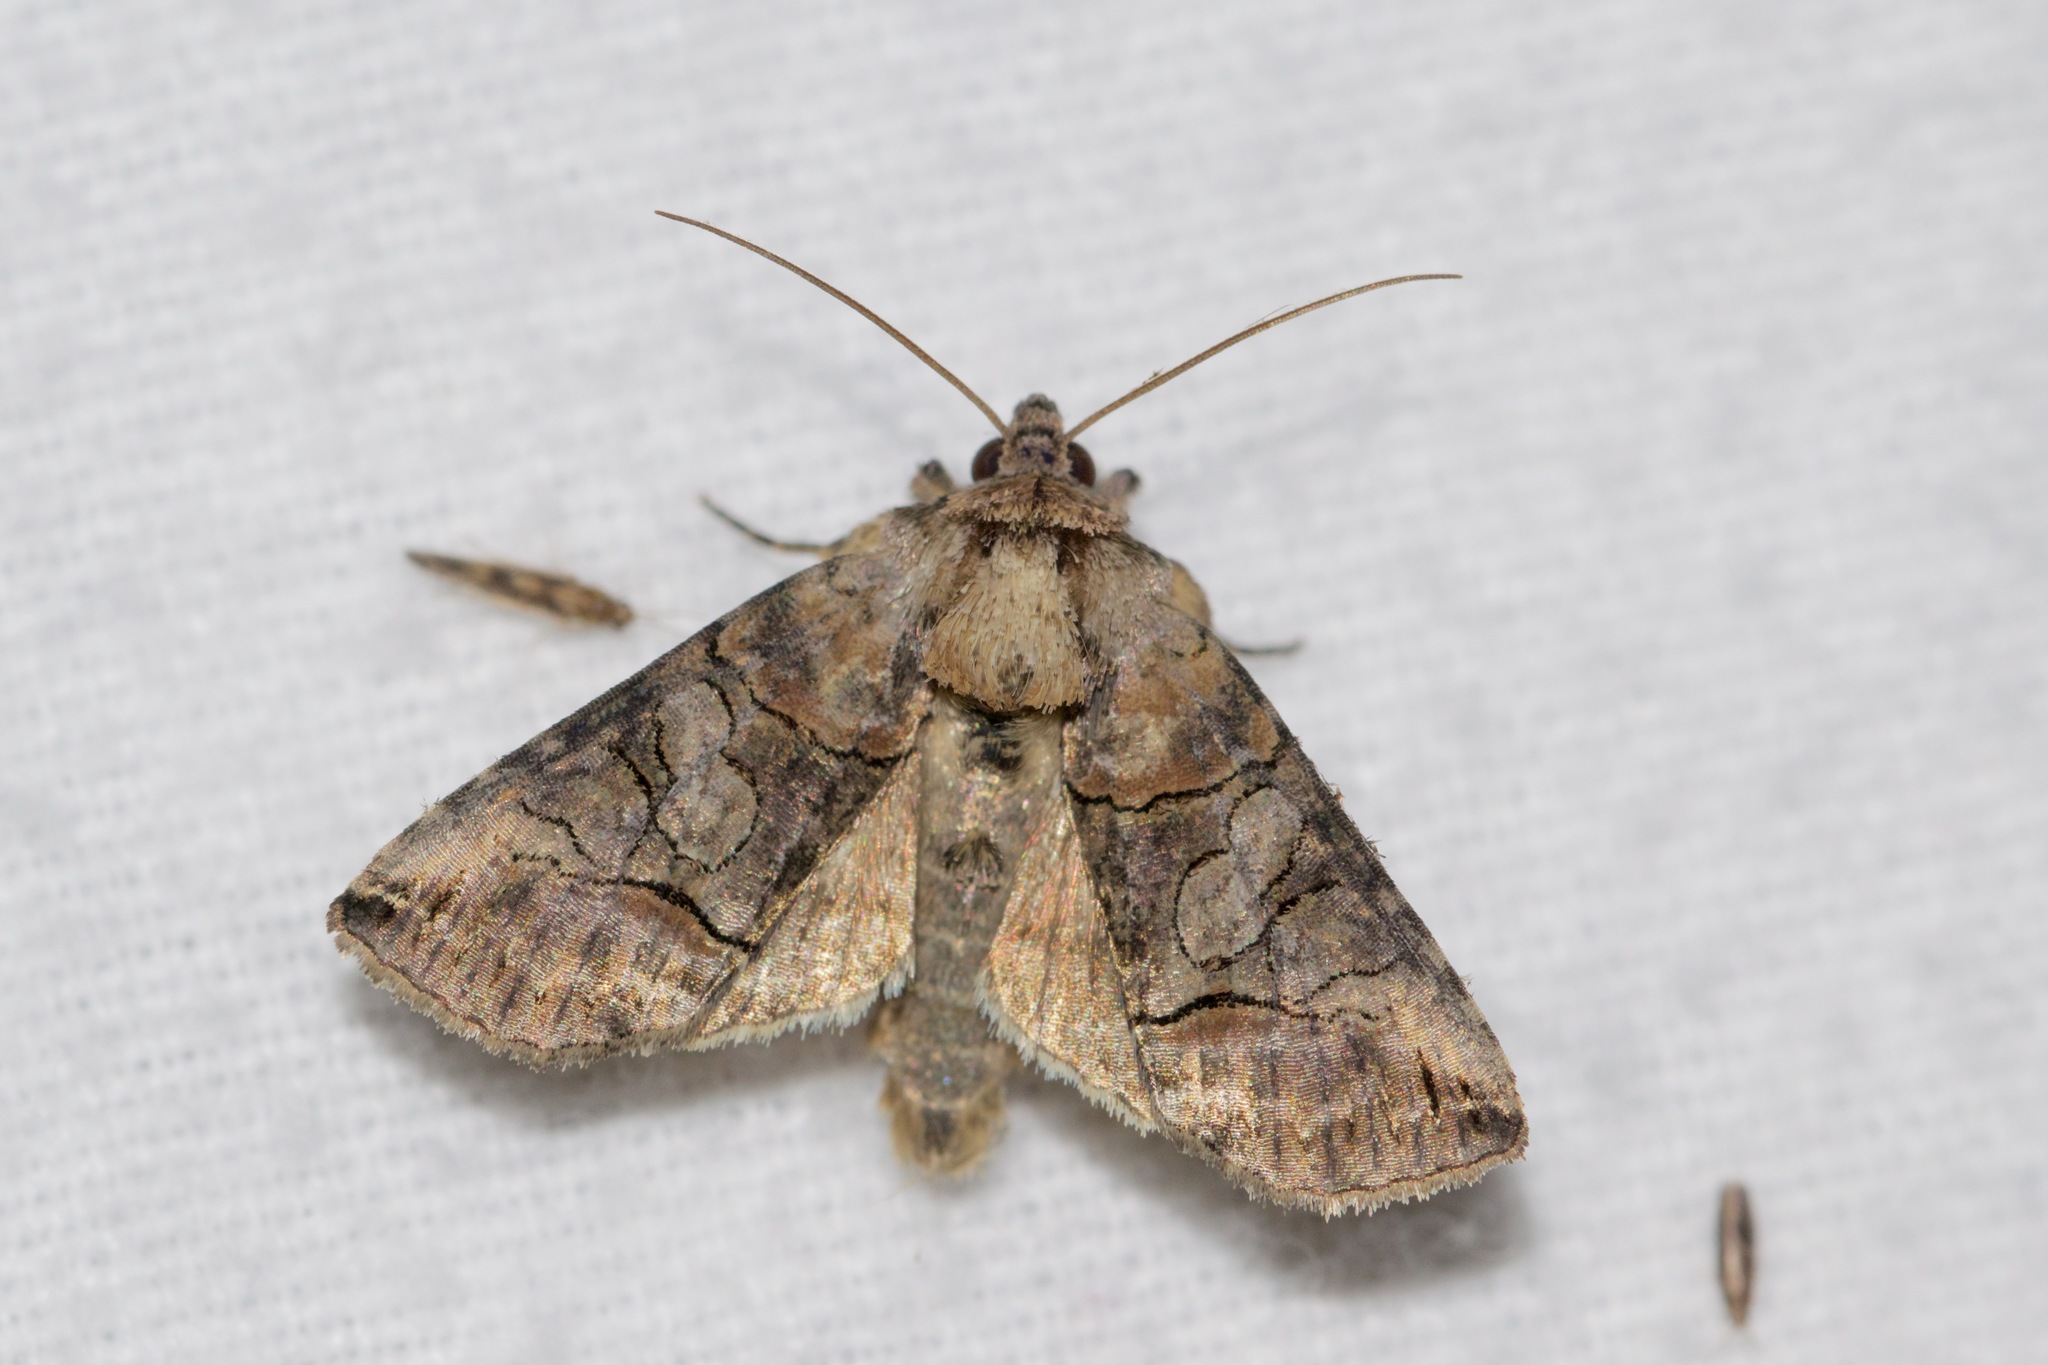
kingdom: Animalia
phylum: Arthropoda
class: Insecta
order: Lepidoptera
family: Noctuidae
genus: Abrostola
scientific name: Abrostola urentis
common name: Spectacled nettle moth
